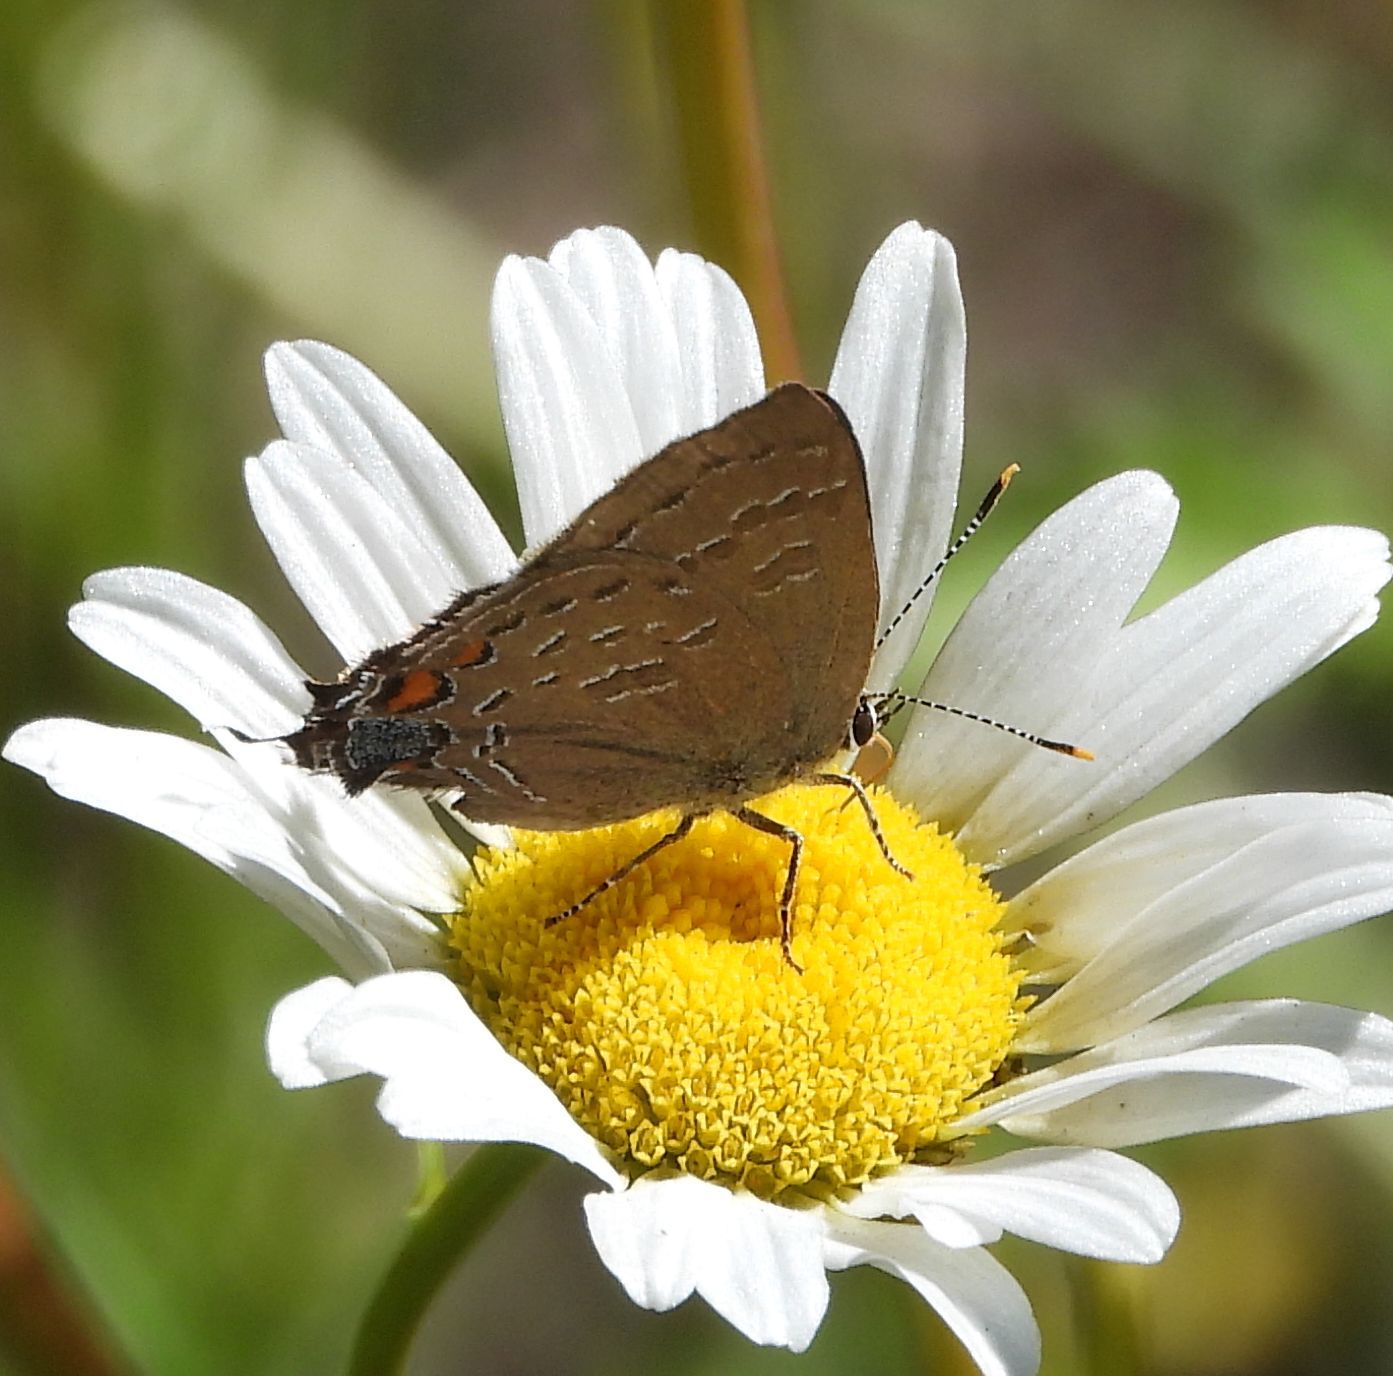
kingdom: Animalia
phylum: Arthropoda
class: Insecta
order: Lepidoptera
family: Lycaenidae
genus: Satyrium
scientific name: Satyrium calanus
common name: Banded hairstreak
